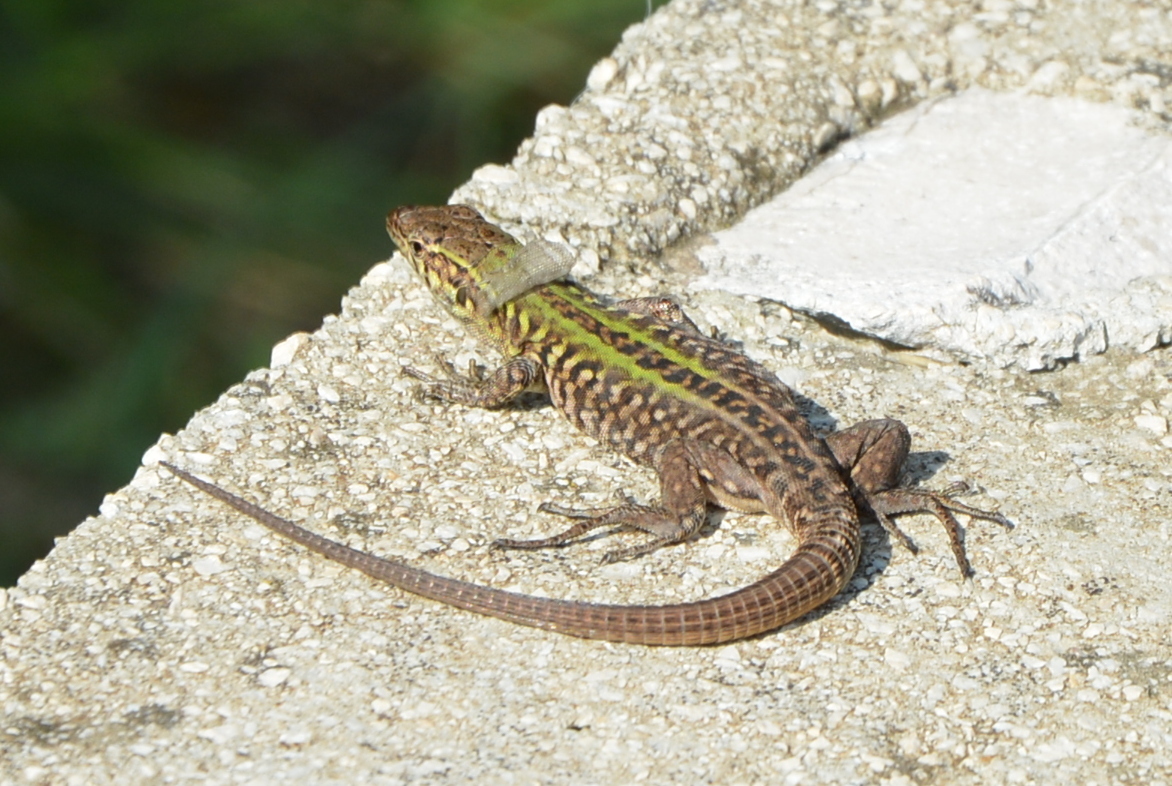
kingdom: Animalia
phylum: Chordata
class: Squamata
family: Lacertidae
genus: Podarcis
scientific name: Podarcis siculus
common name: Italian wall lizard
